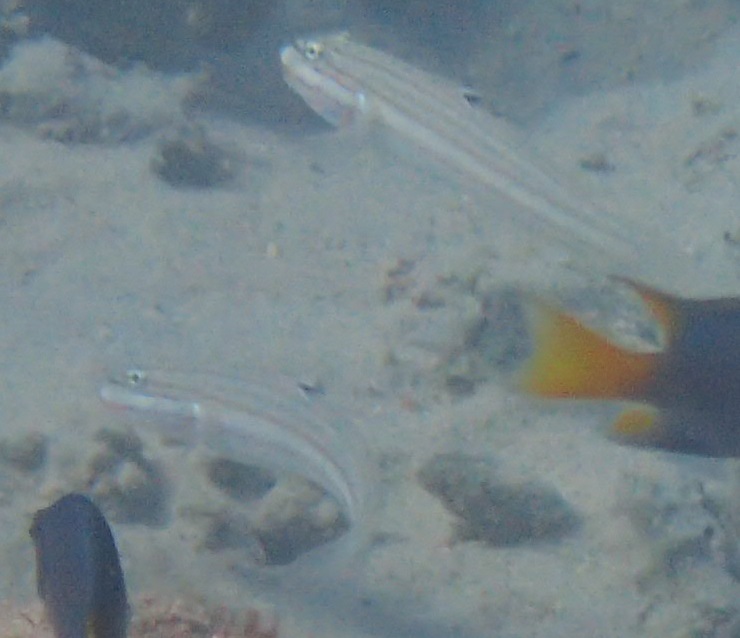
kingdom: Animalia
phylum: Chordata
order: Perciformes
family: Gobiidae
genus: Valenciennea
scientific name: Valenciennea muralis
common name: Mural goby
